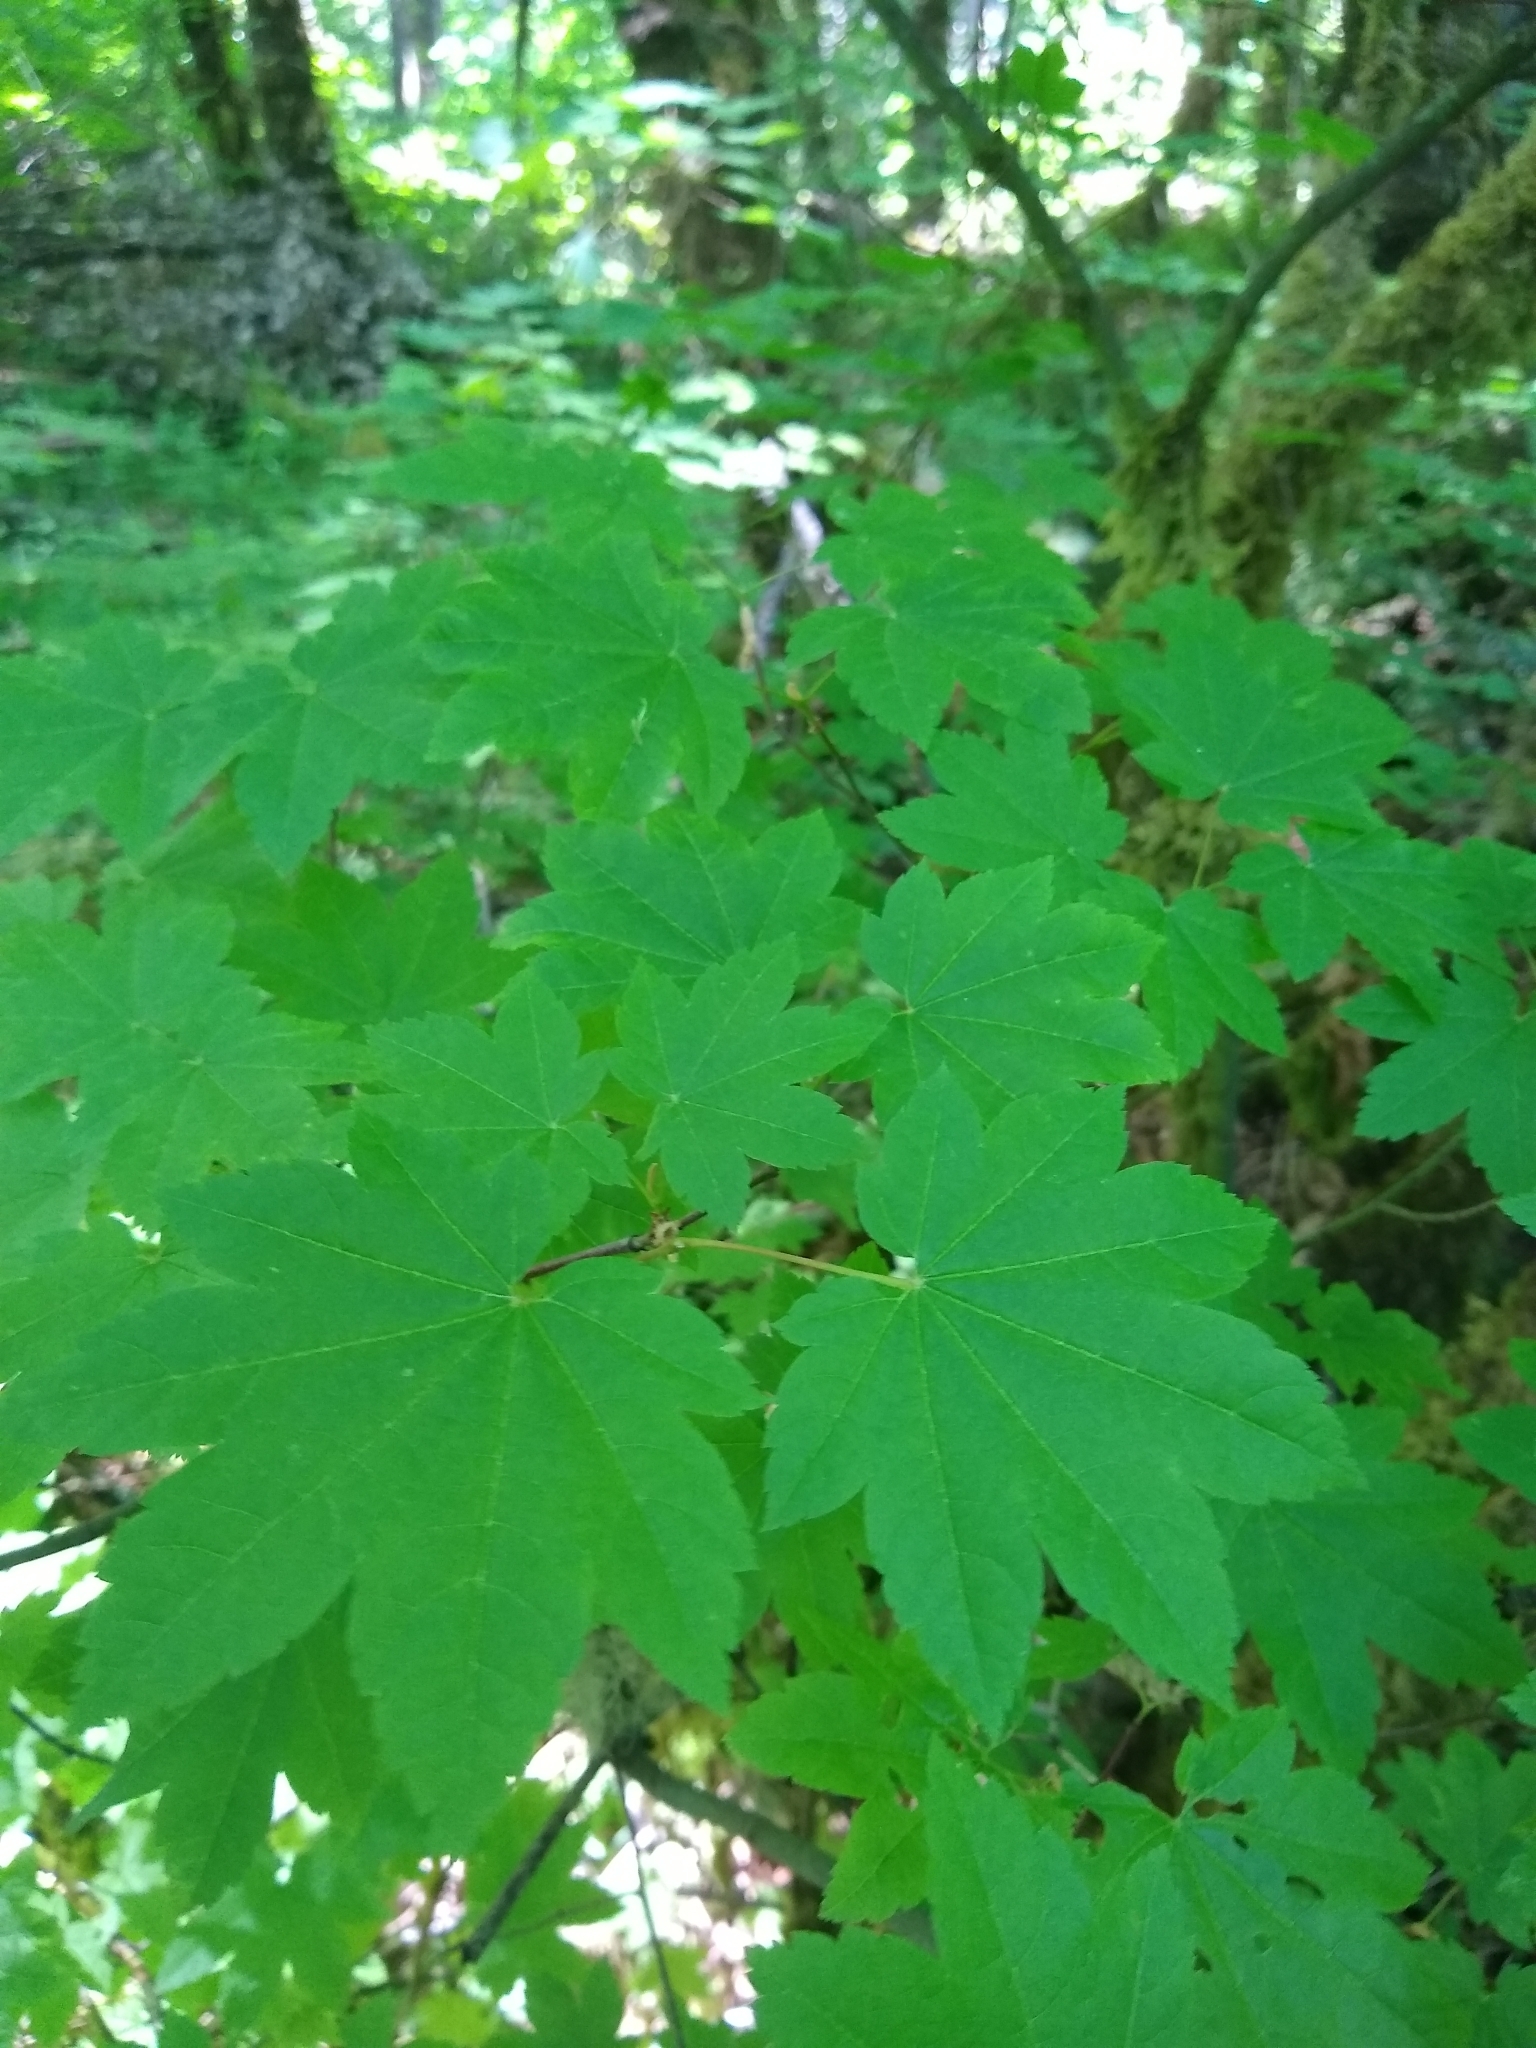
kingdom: Plantae
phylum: Tracheophyta
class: Magnoliopsida
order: Sapindales
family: Sapindaceae
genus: Acer
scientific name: Acer circinatum
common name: Vine maple
